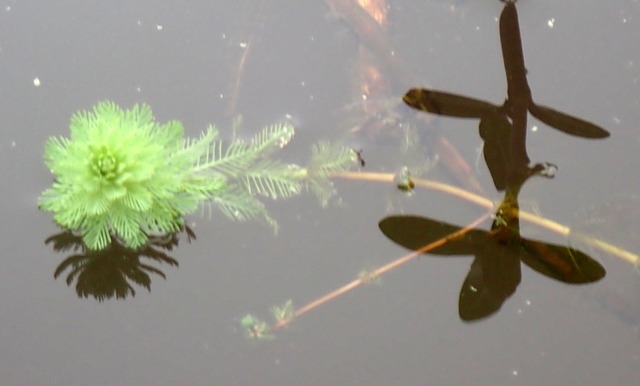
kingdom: Plantae
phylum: Tracheophyta
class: Magnoliopsida
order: Saxifragales
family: Haloragaceae
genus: Myriophyllum
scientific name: Myriophyllum aquaticum
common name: Parrot's feather
